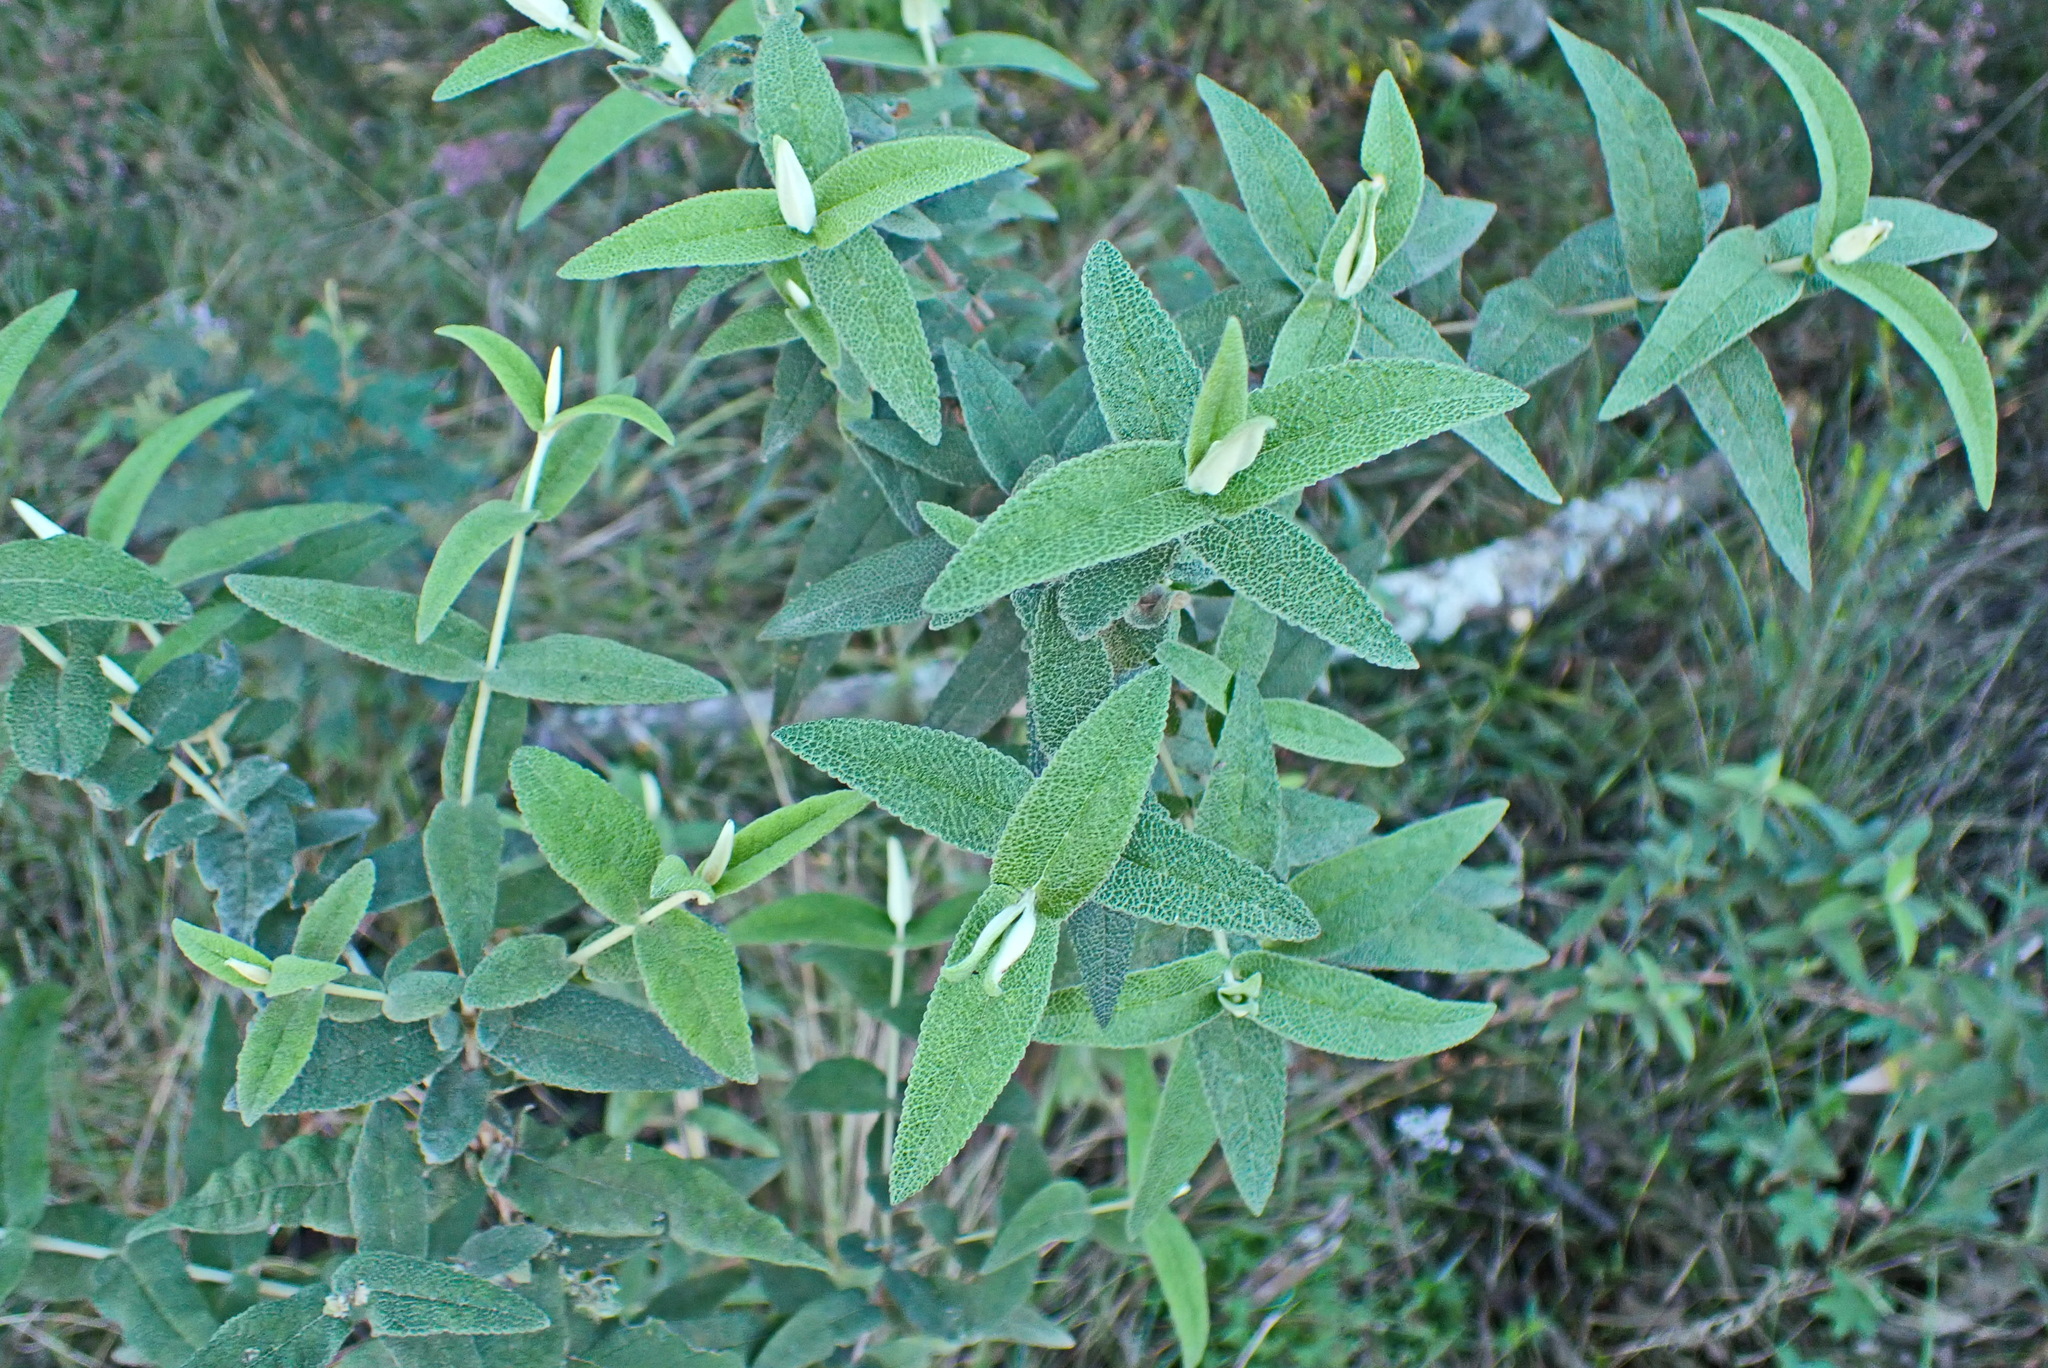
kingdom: Plantae
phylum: Tracheophyta
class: Magnoliopsida
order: Lamiales
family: Scrophulariaceae
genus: Buddleja
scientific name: Buddleja salviifolia
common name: Sagewood
